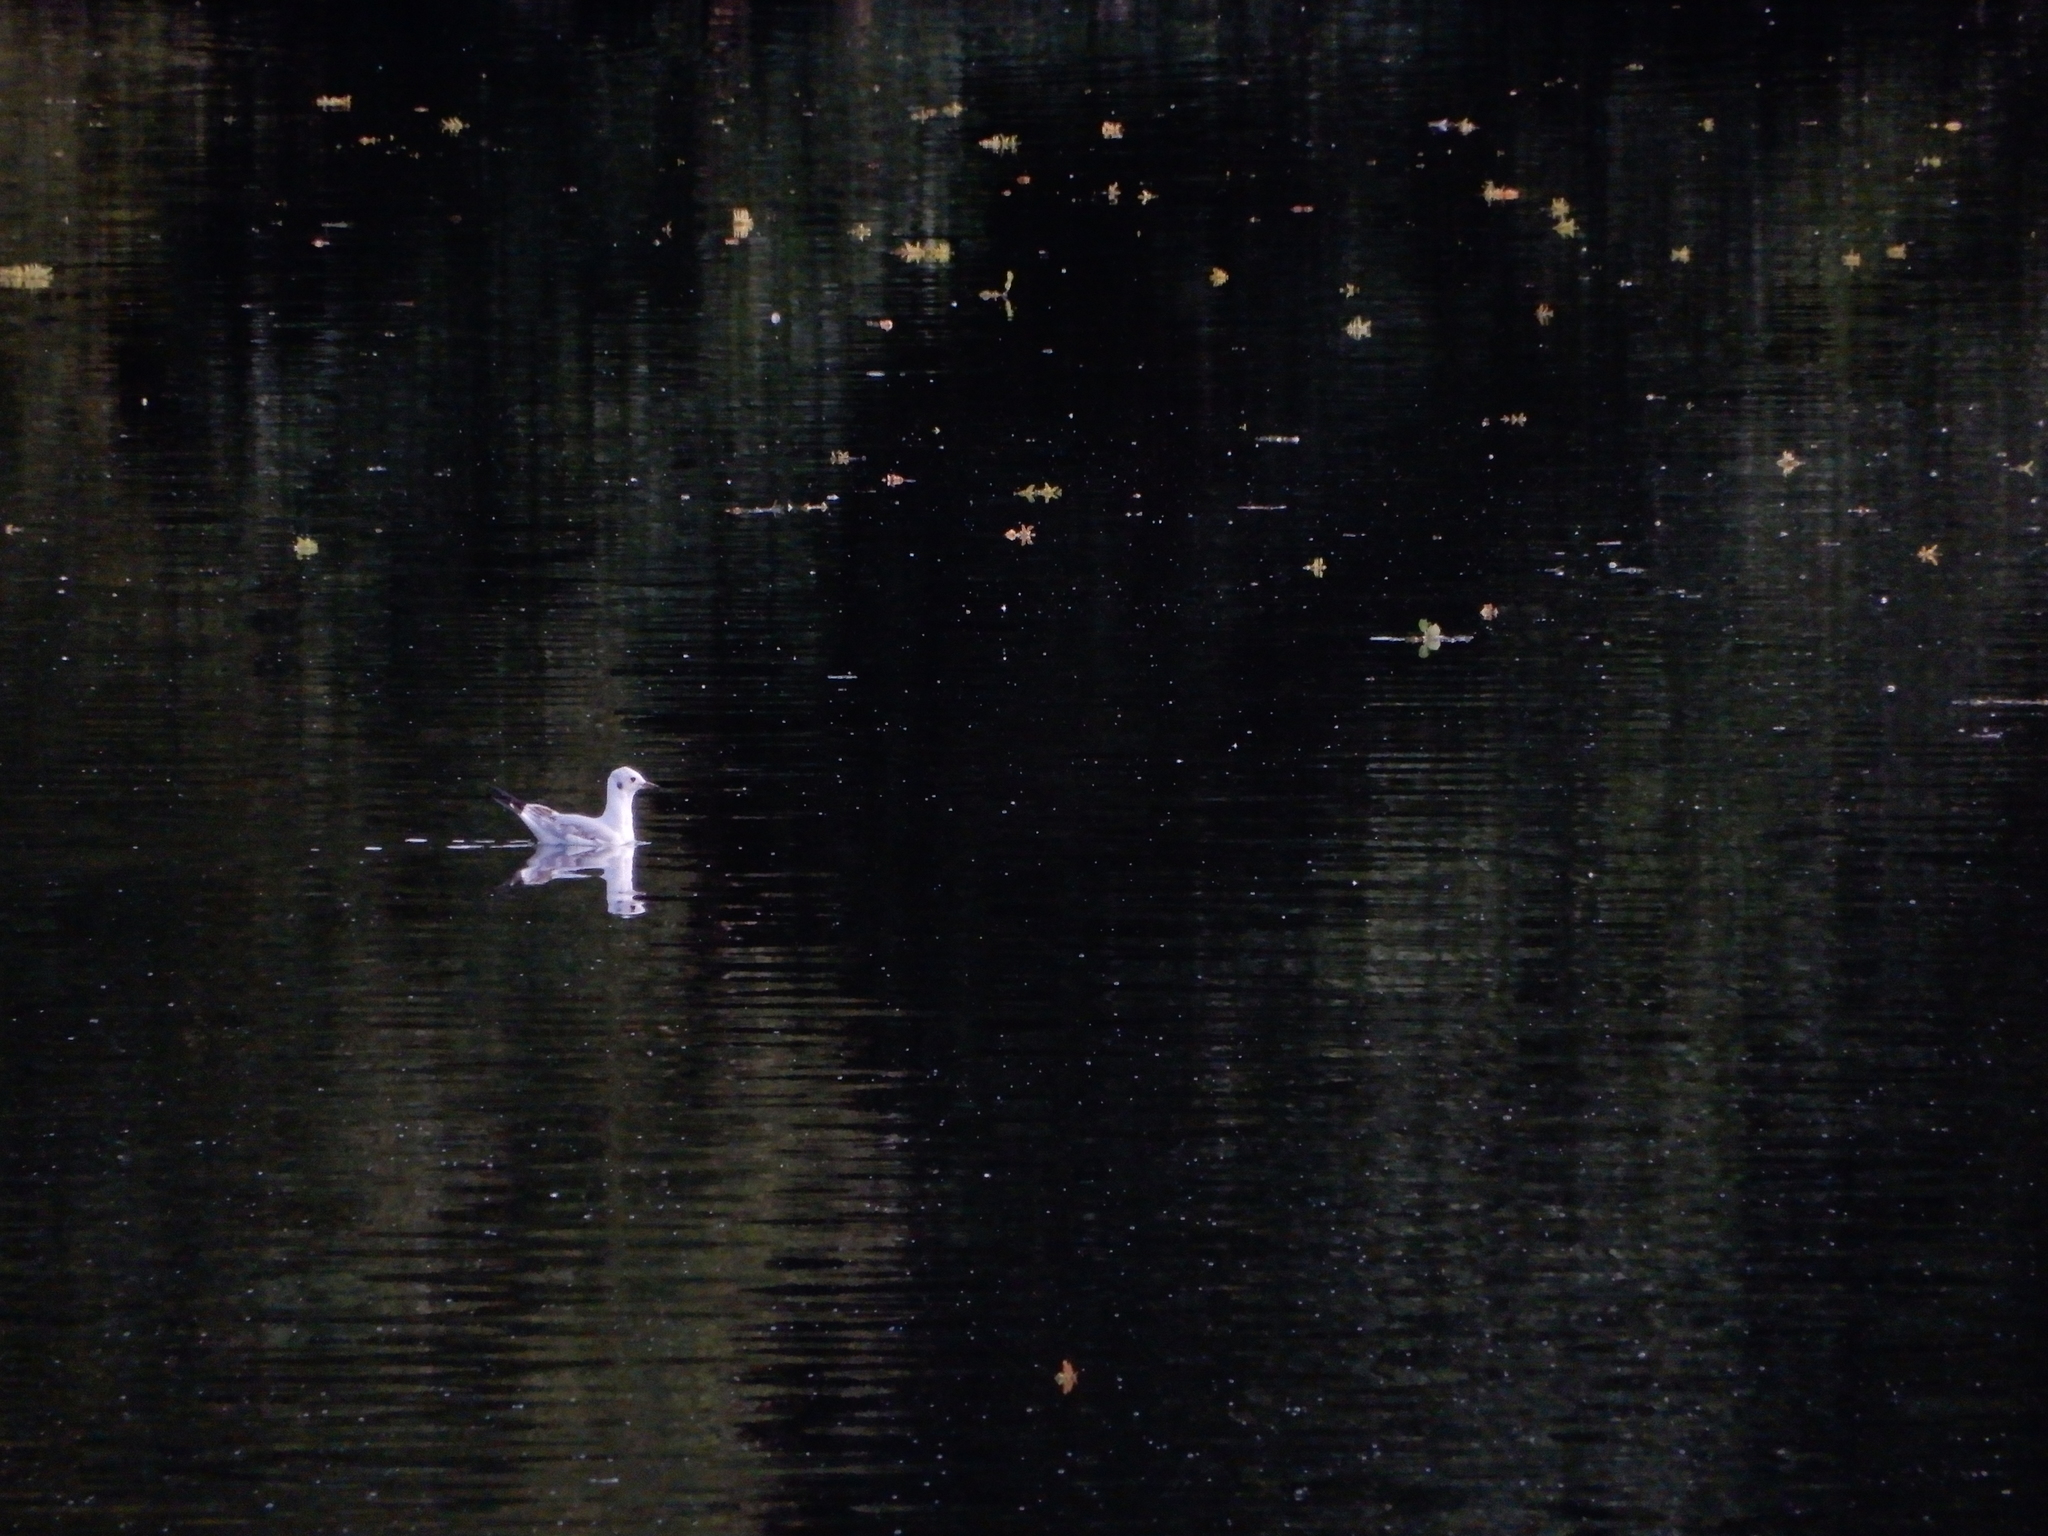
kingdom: Animalia
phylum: Chordata
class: Aves
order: Charadriiformes
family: Laridae
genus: Chroicocephalus
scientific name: Chroicocephalus ridibundus
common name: Black-headed gull
